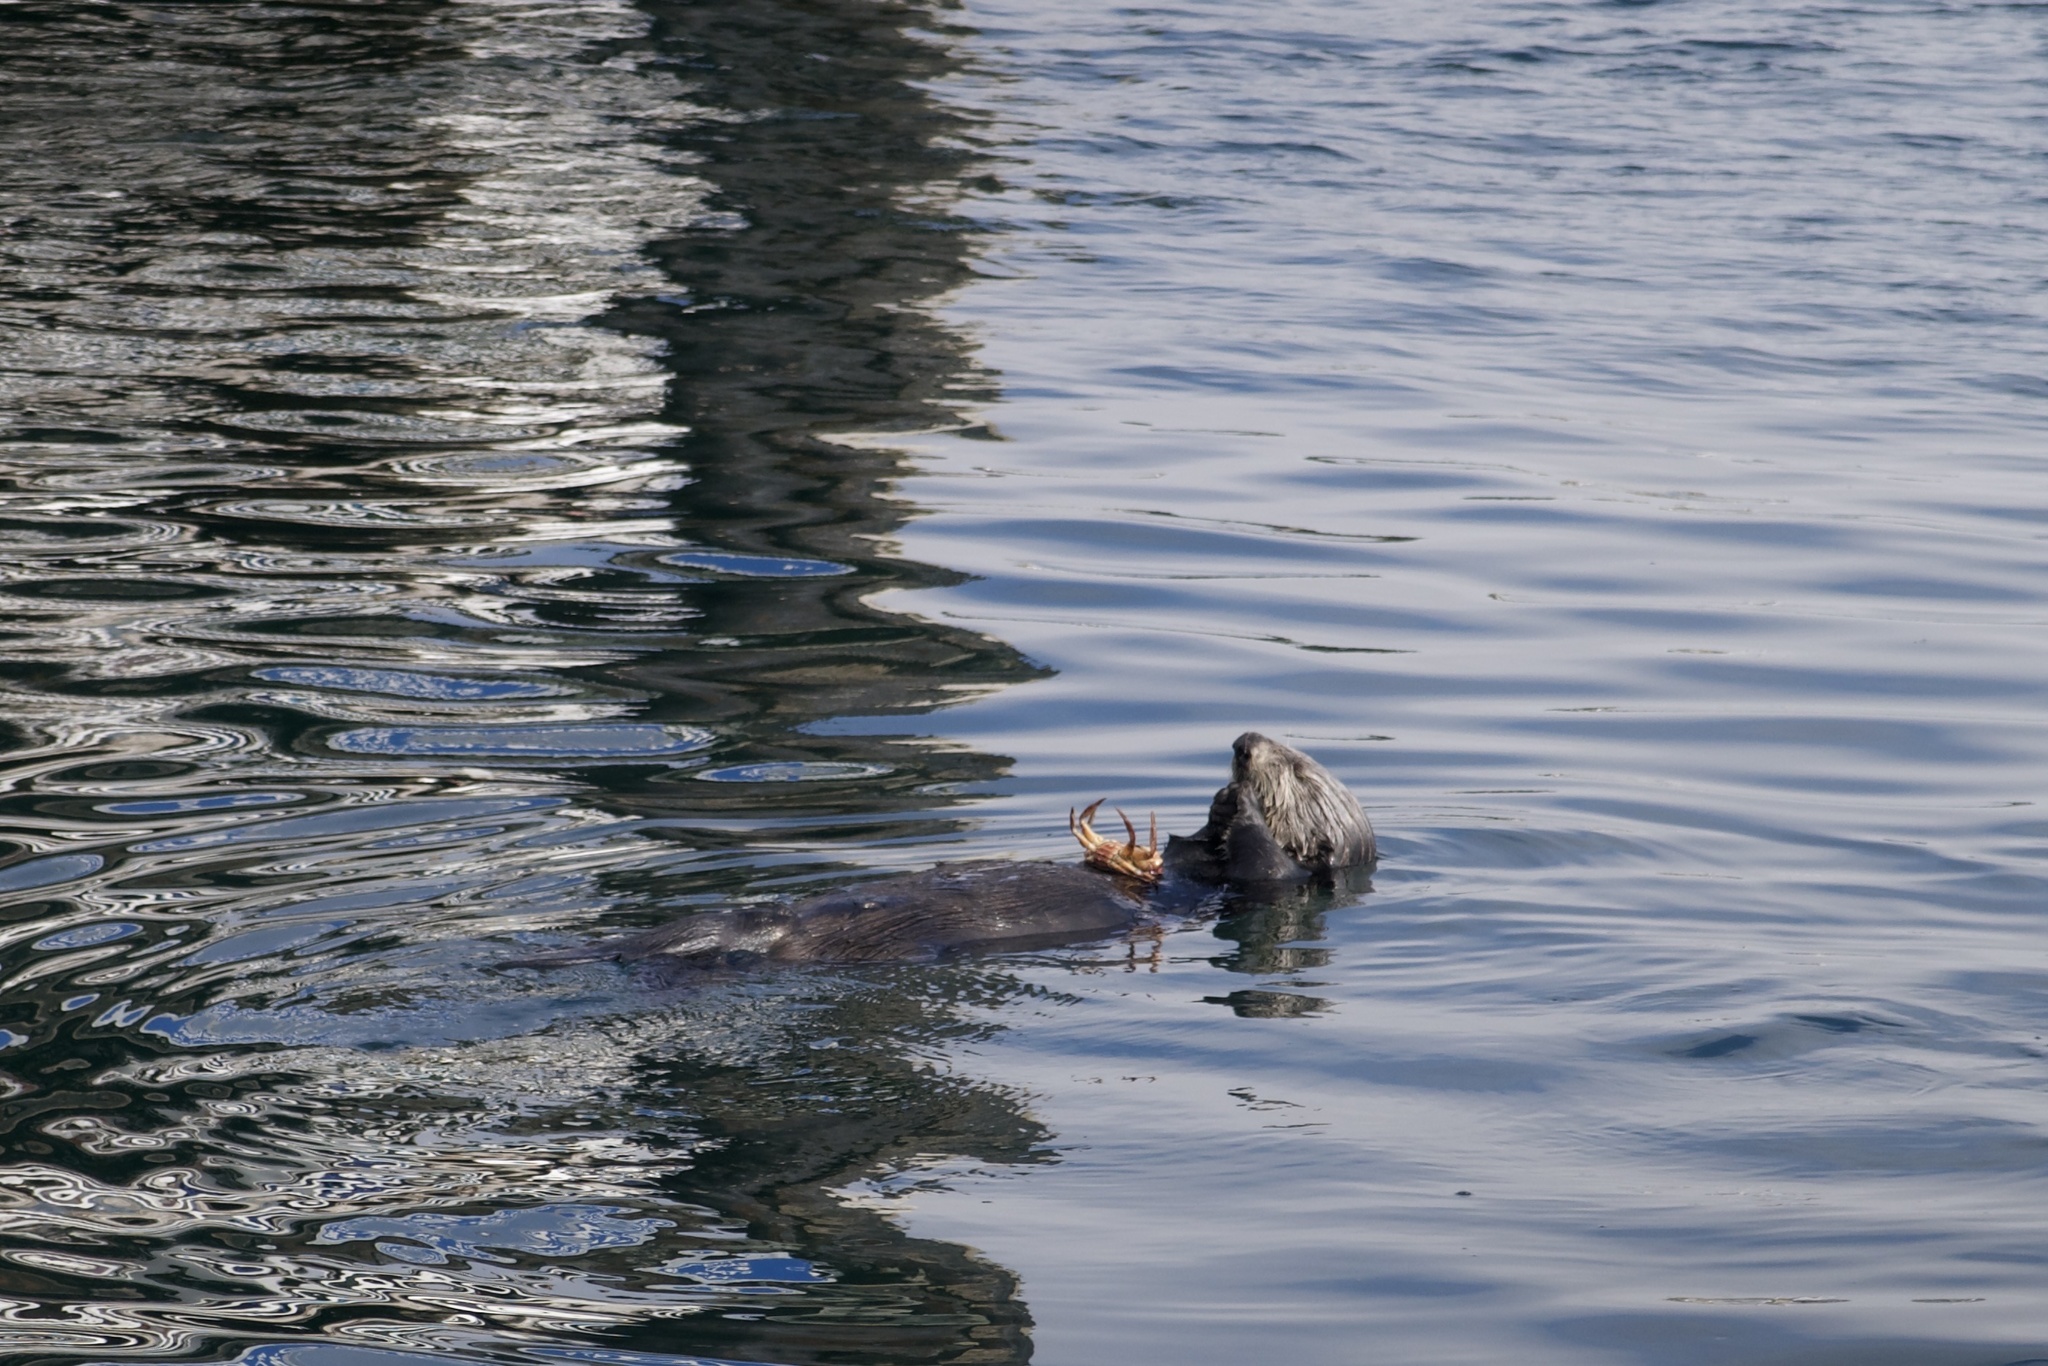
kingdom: Animalia
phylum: Chordata
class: Mammalia
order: Carnivora
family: Mustelidae
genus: Enhydra
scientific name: Enhydra lutris
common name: Sea otter
